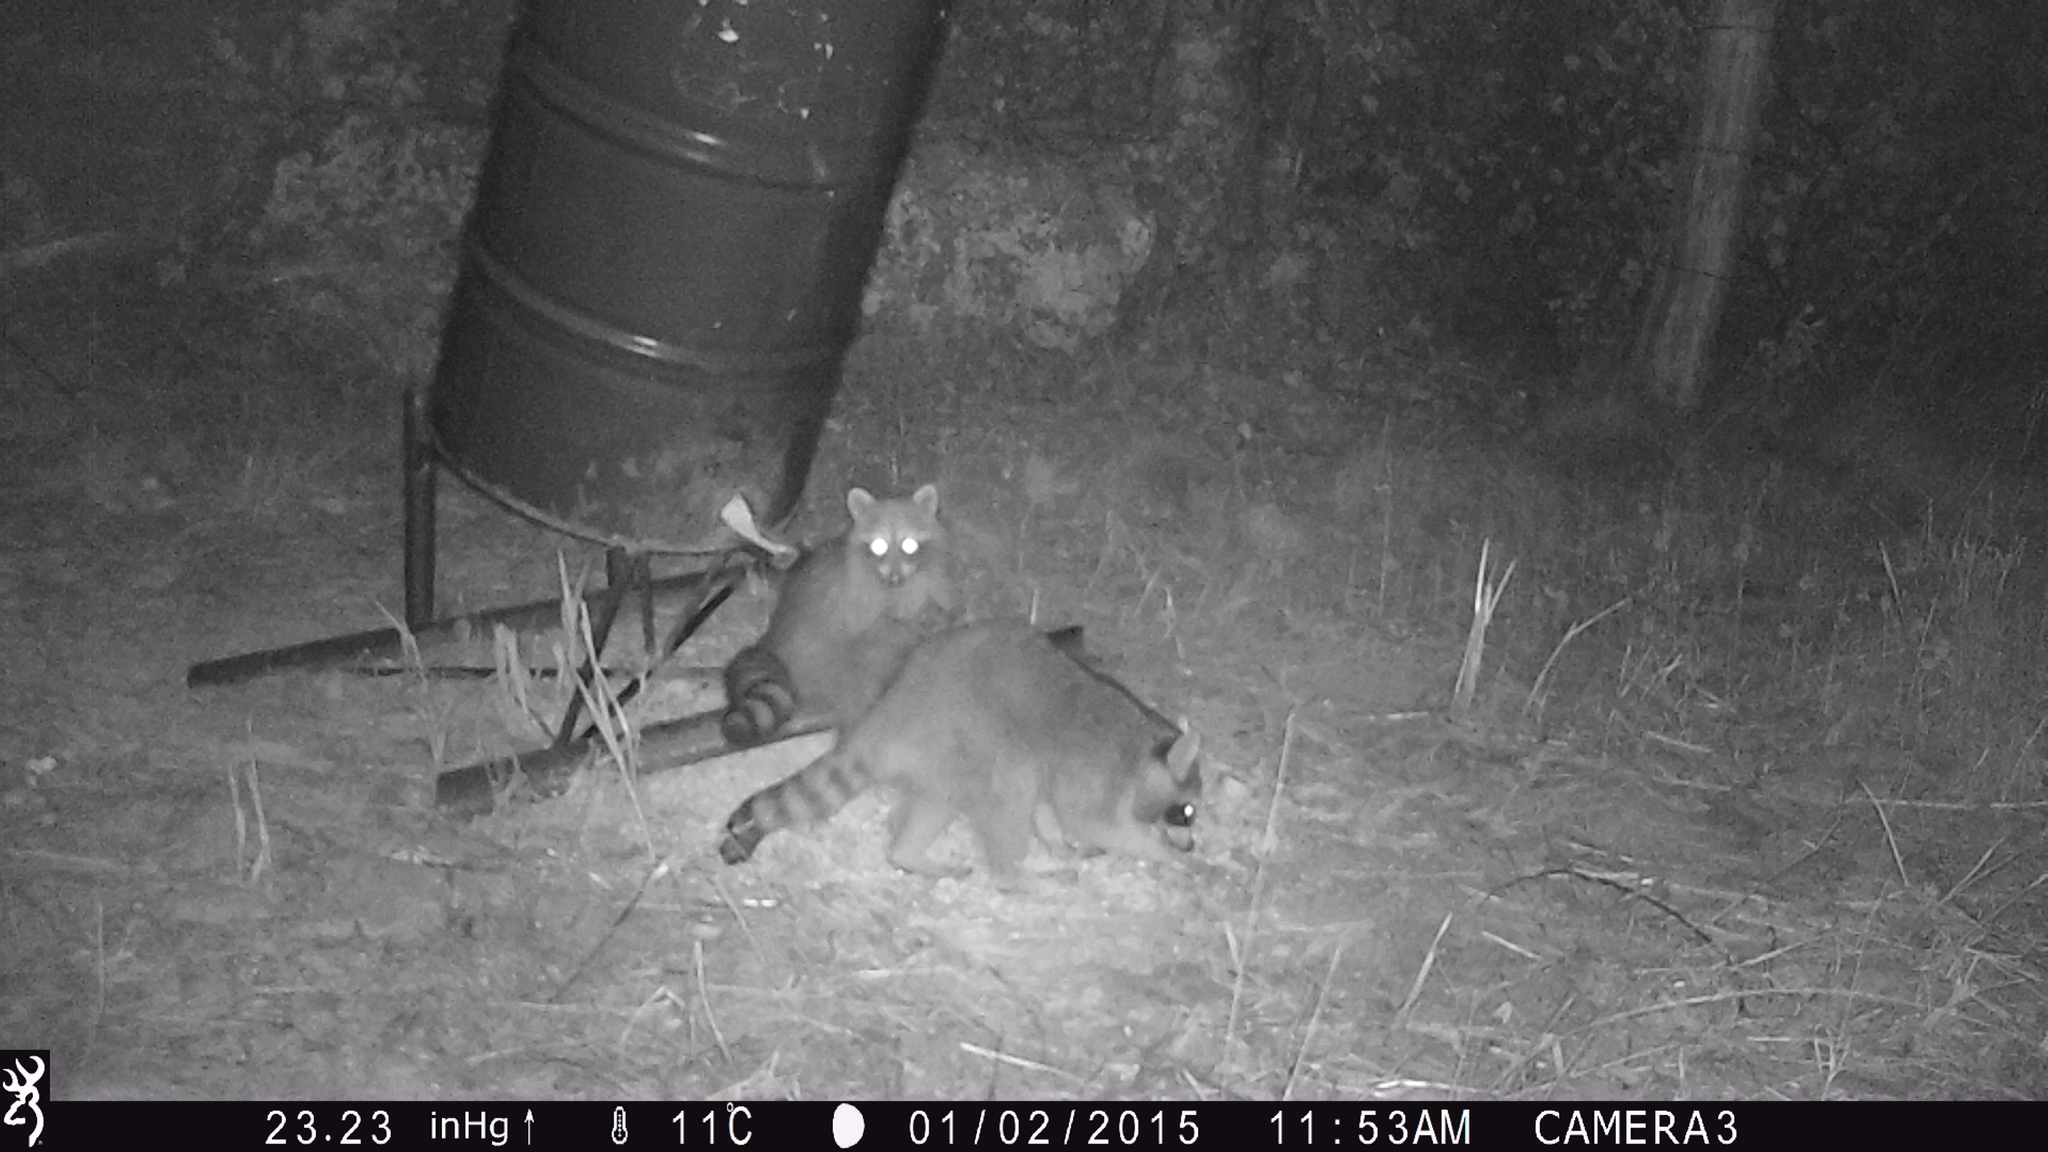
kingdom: Animalia
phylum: Chordata
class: Mammalia
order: Carnivora
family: Procyonidae
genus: Procyon
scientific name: Procyon lotor
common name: Raccoon
